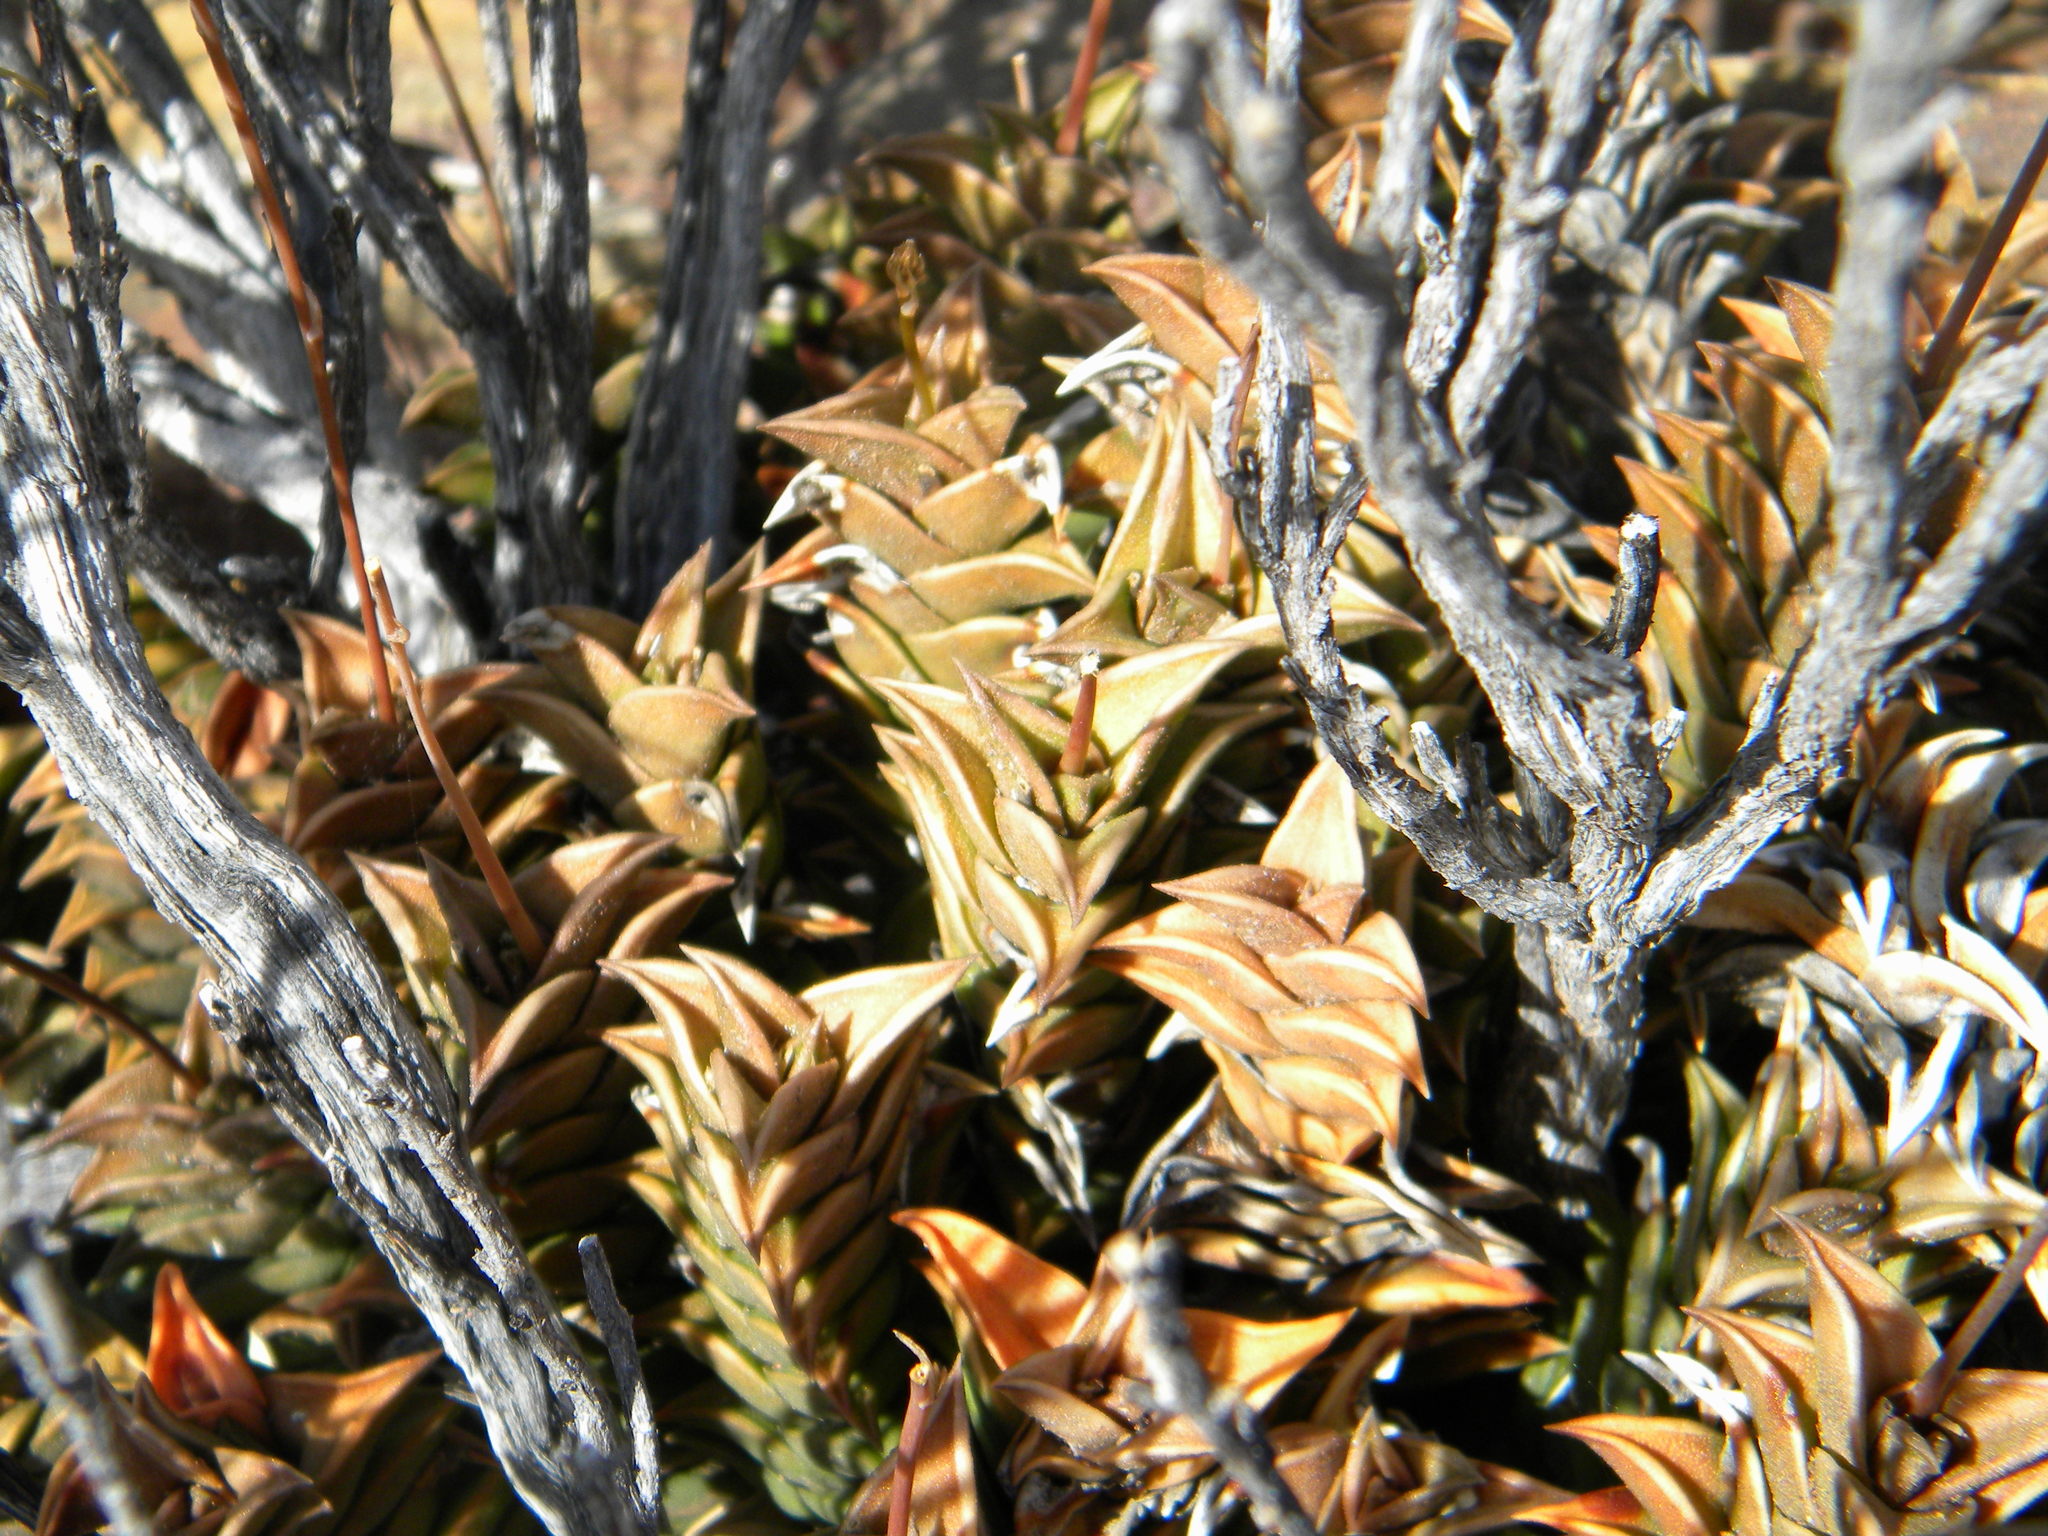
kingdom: Plantae
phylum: Tracheophyta
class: Liliopsida
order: Asparagales
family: Asphodelaceae
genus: Haworthiopsis
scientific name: Haworthiopsis viscosa
